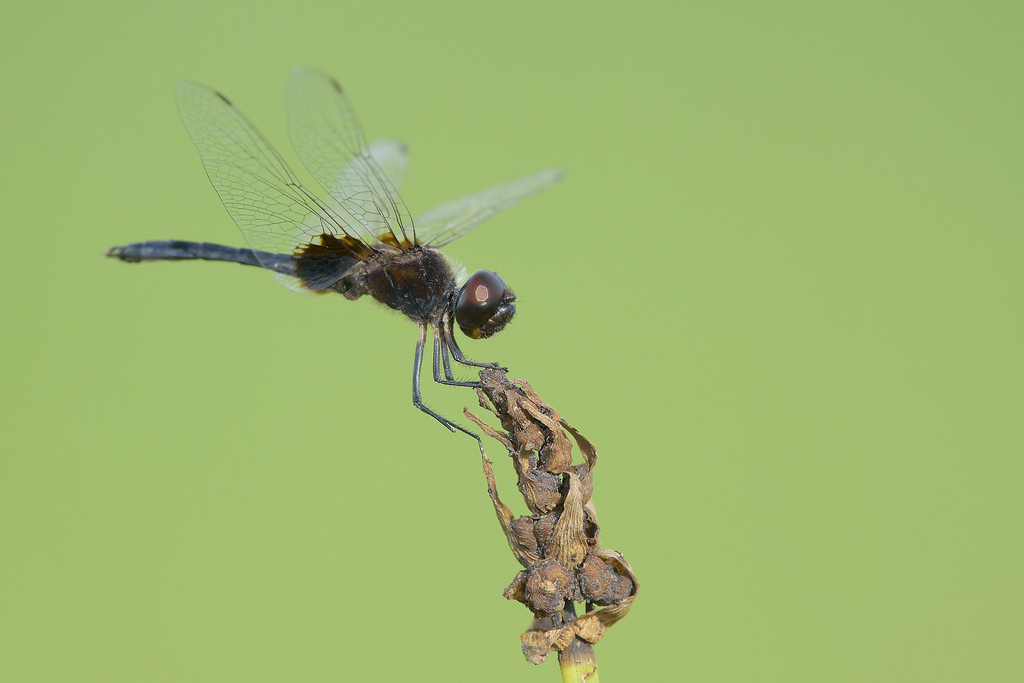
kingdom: Animalia
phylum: Arthropoda
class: Insecta
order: Odonata
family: Libellulidae
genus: Macrodiplax
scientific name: Macrodiplax balteata
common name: Marl pennant
